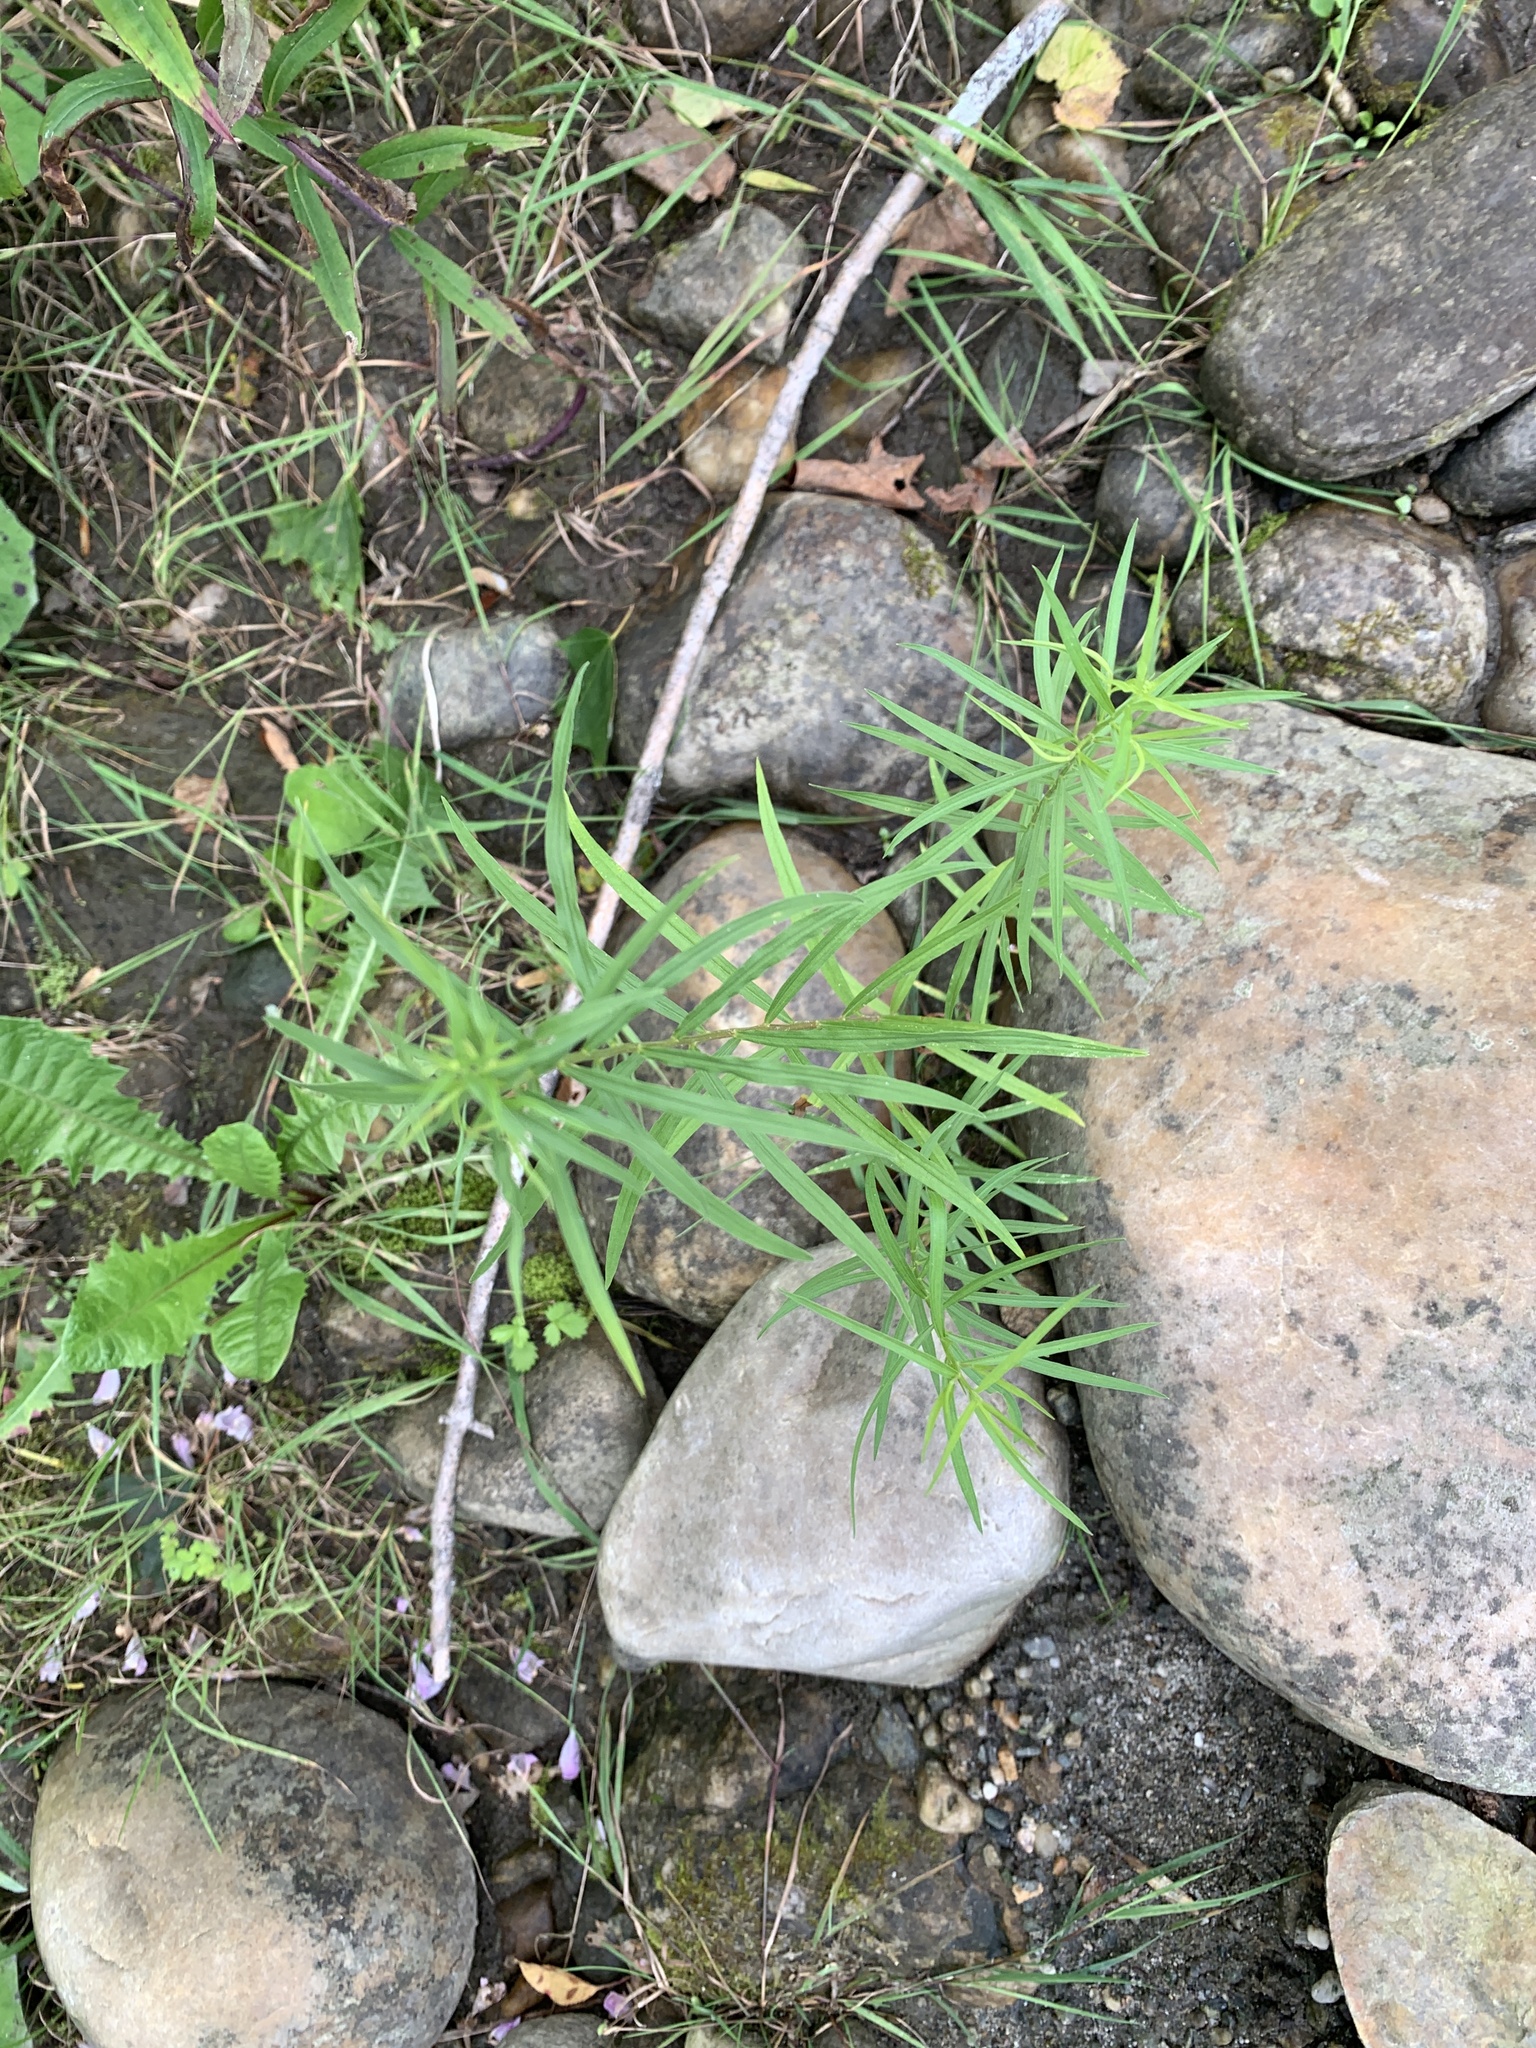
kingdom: Plantae
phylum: Tracheophyta
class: Magnoliopsida
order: Asterales
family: Asteraceae
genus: Euthamia
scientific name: Euthamia graminifolia
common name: Common goldentop
